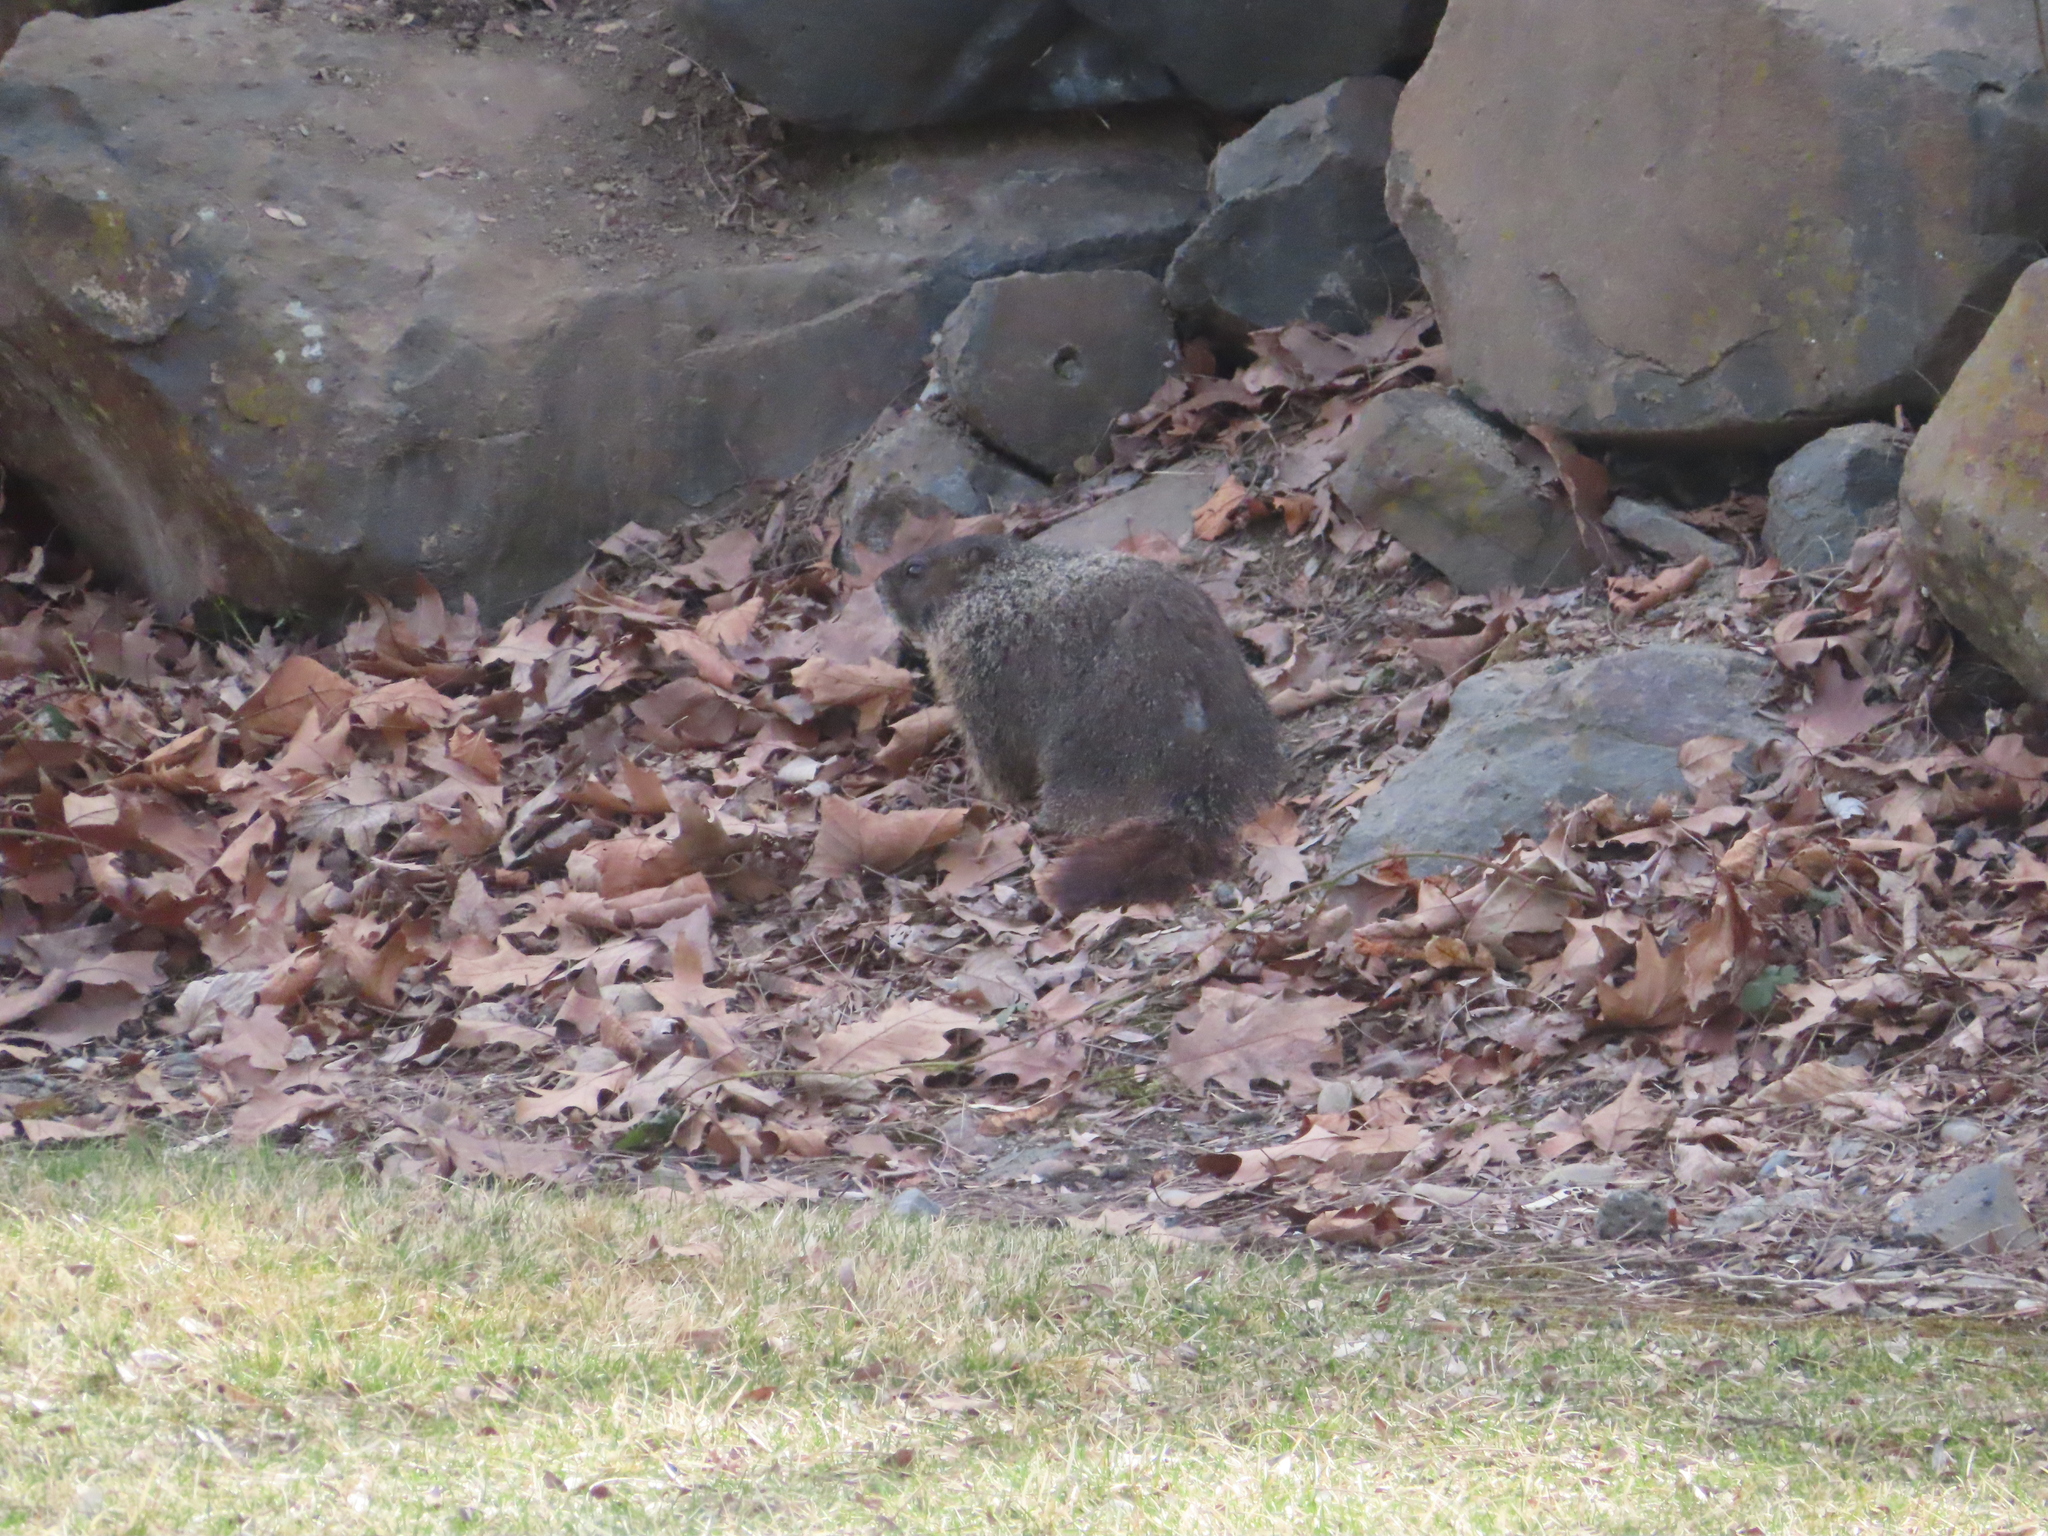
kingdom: Animalia
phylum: Chordata
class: Mammalia
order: Rodentia
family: Sciuridae
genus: Marmota
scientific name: Marmota flaviventris
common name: Yellow-bellied marmot
